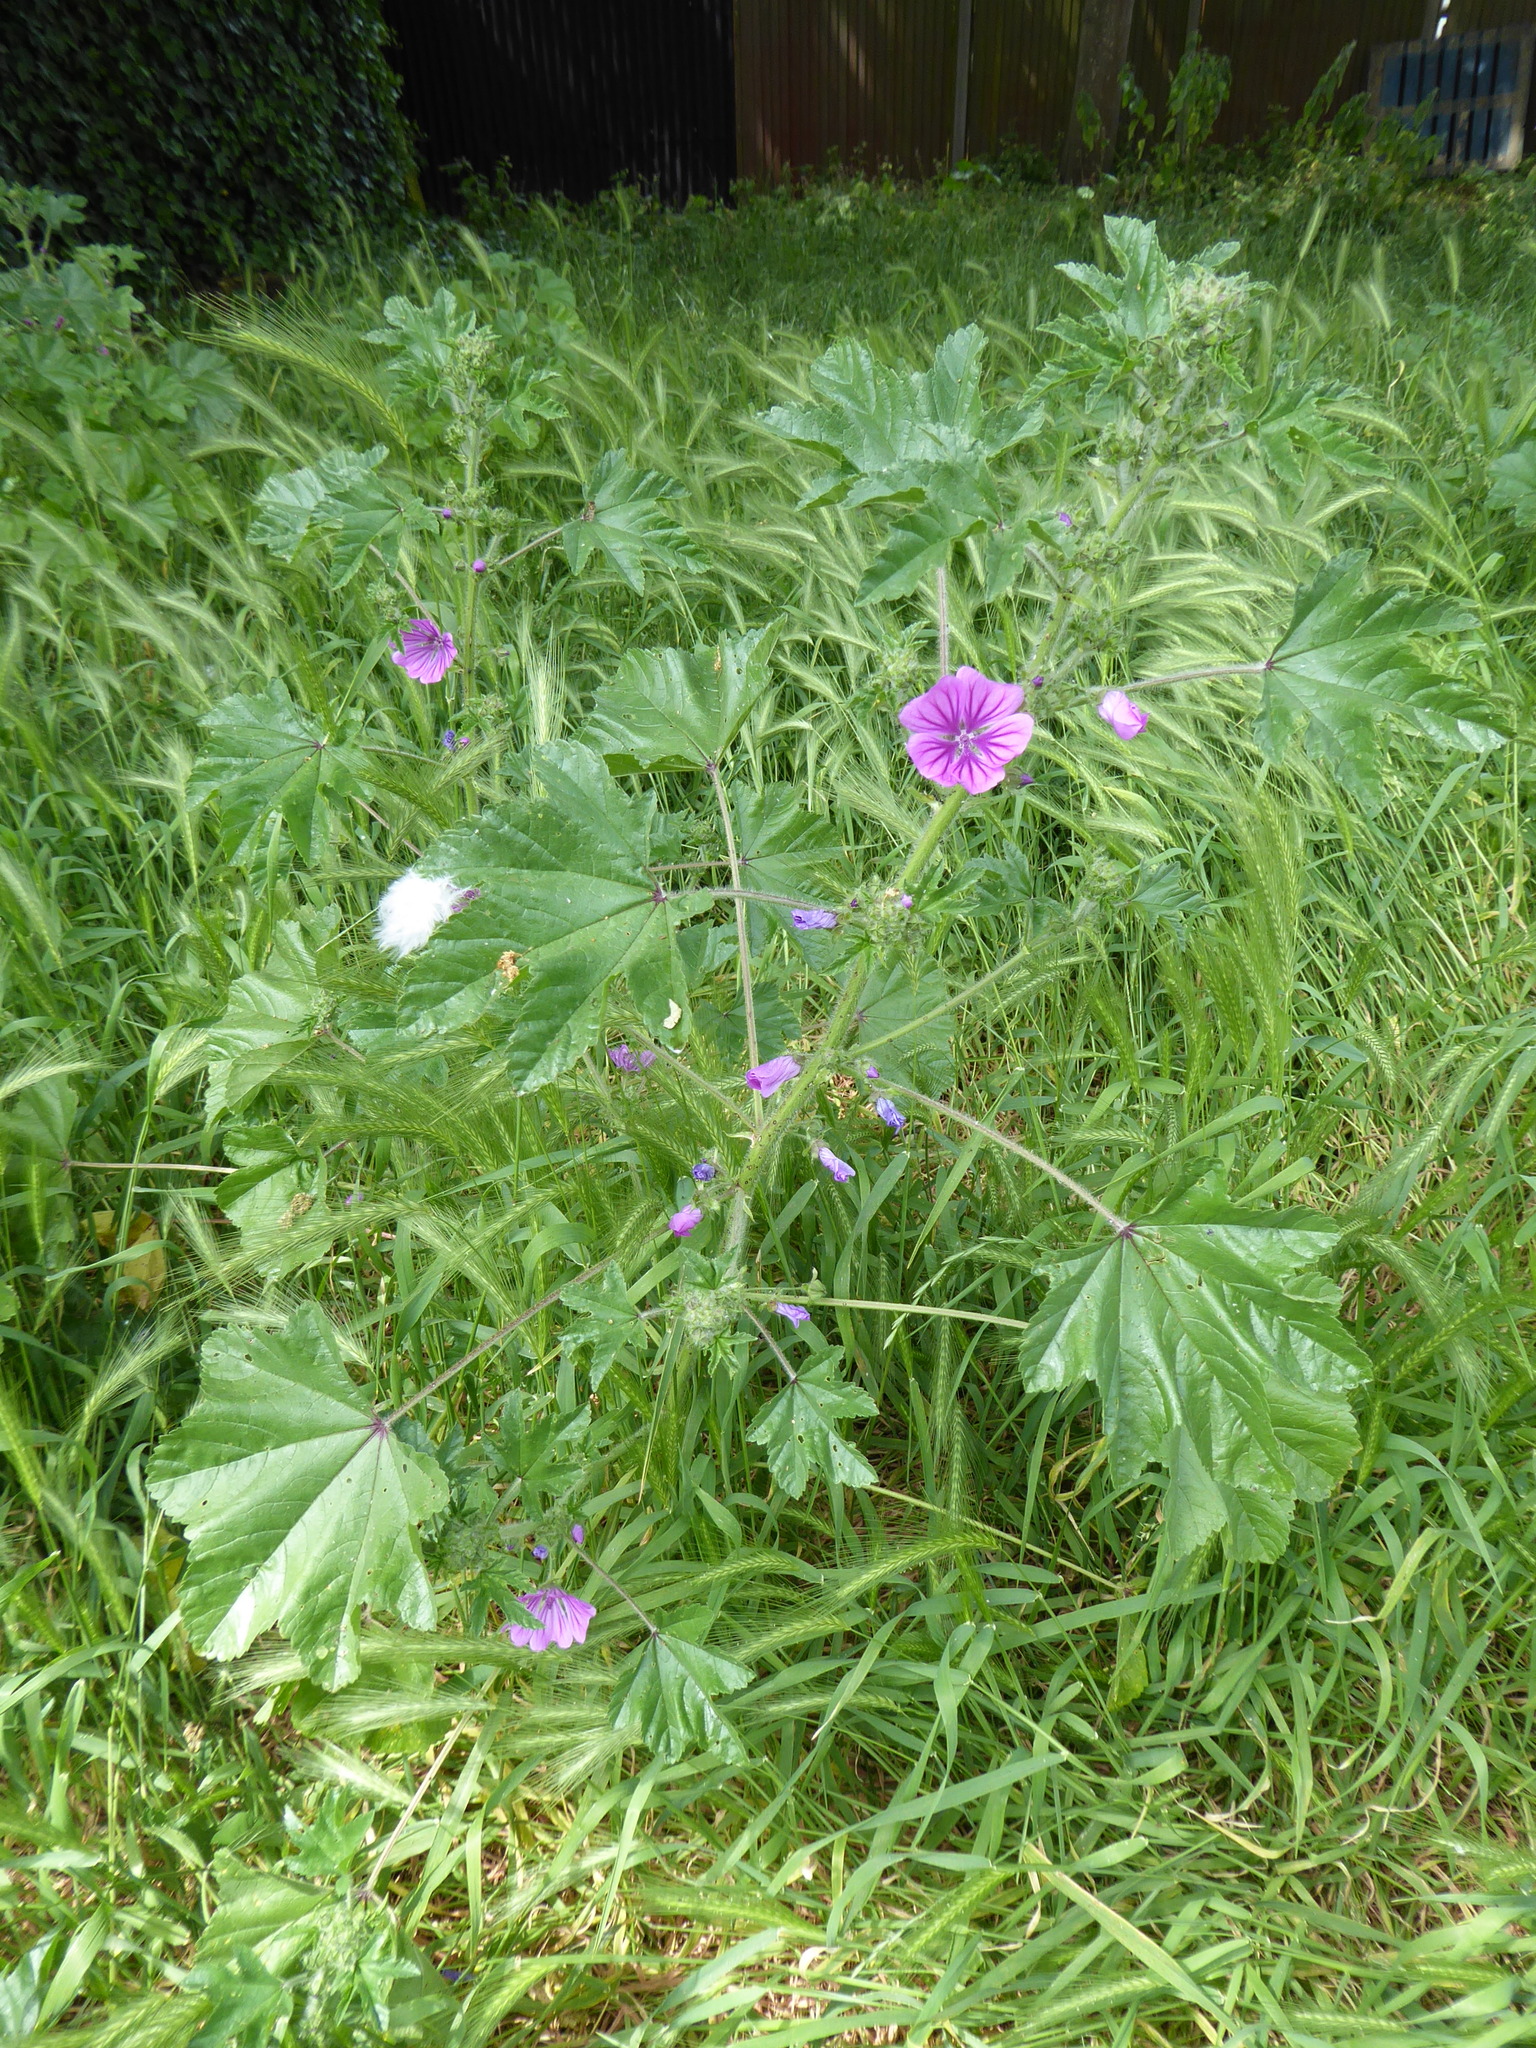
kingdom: Plantae
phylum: Tracheophyta
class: Magnoliopsida
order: Malvales
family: Malvaceae
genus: Malva
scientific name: Malva sylvestris
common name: Common mallow
